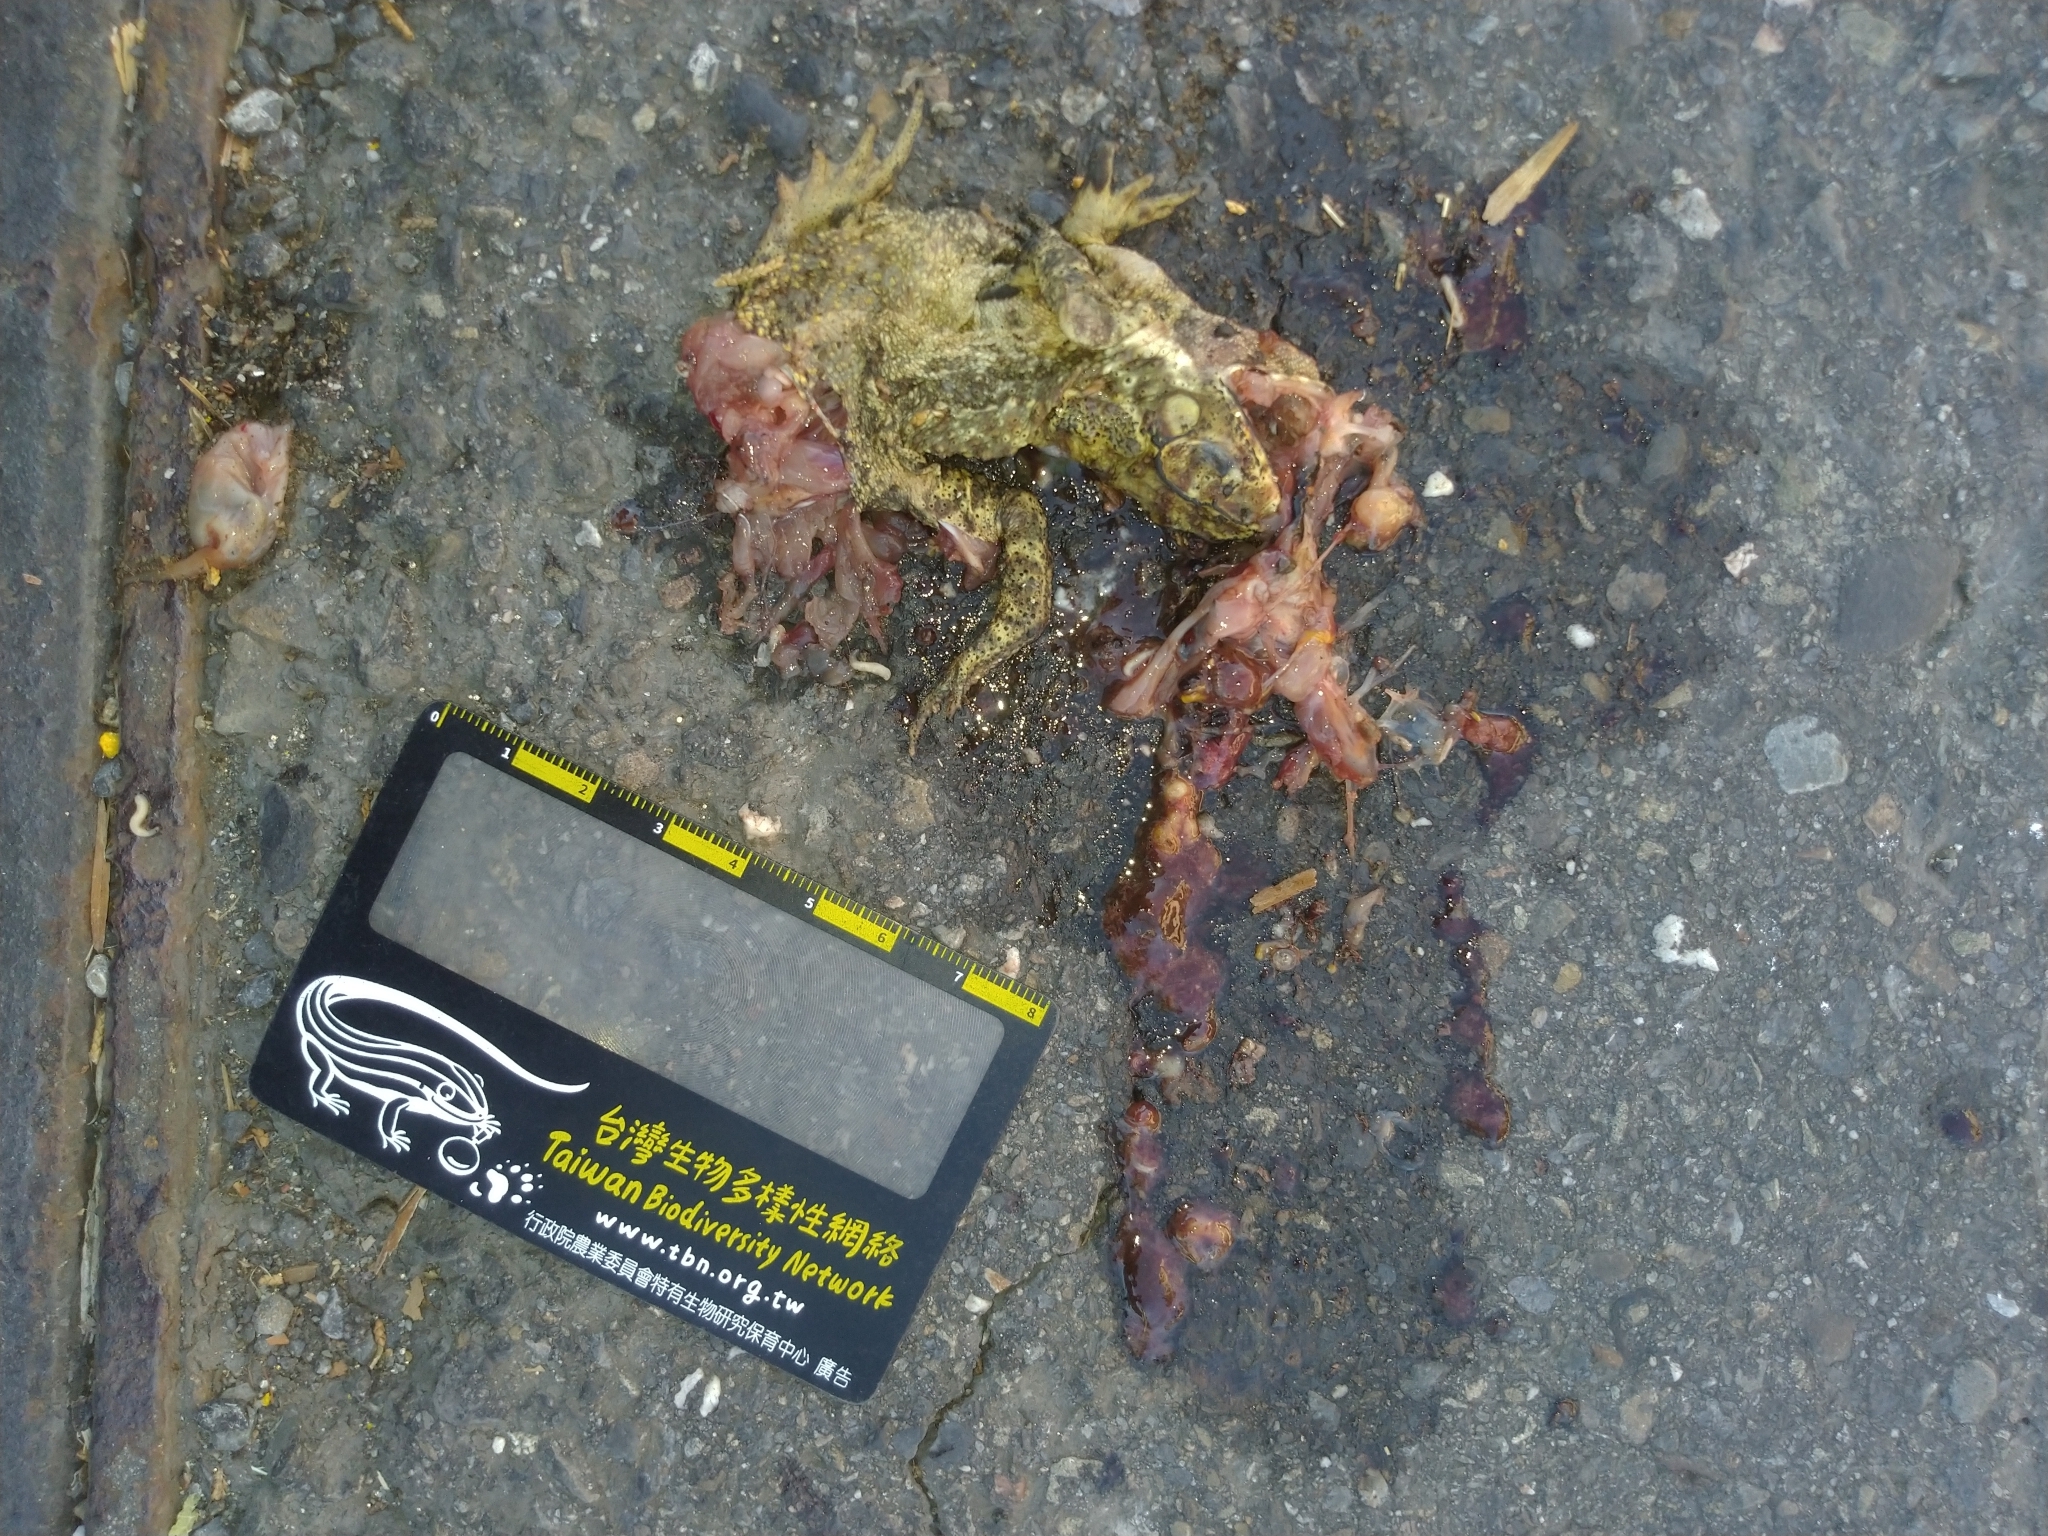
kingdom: Animalia
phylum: Chordata
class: Amphibia
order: Anura
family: Bufonidae
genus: Duttaphrynus
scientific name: Duttaphrynus melanostictus
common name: Common sunda toad
